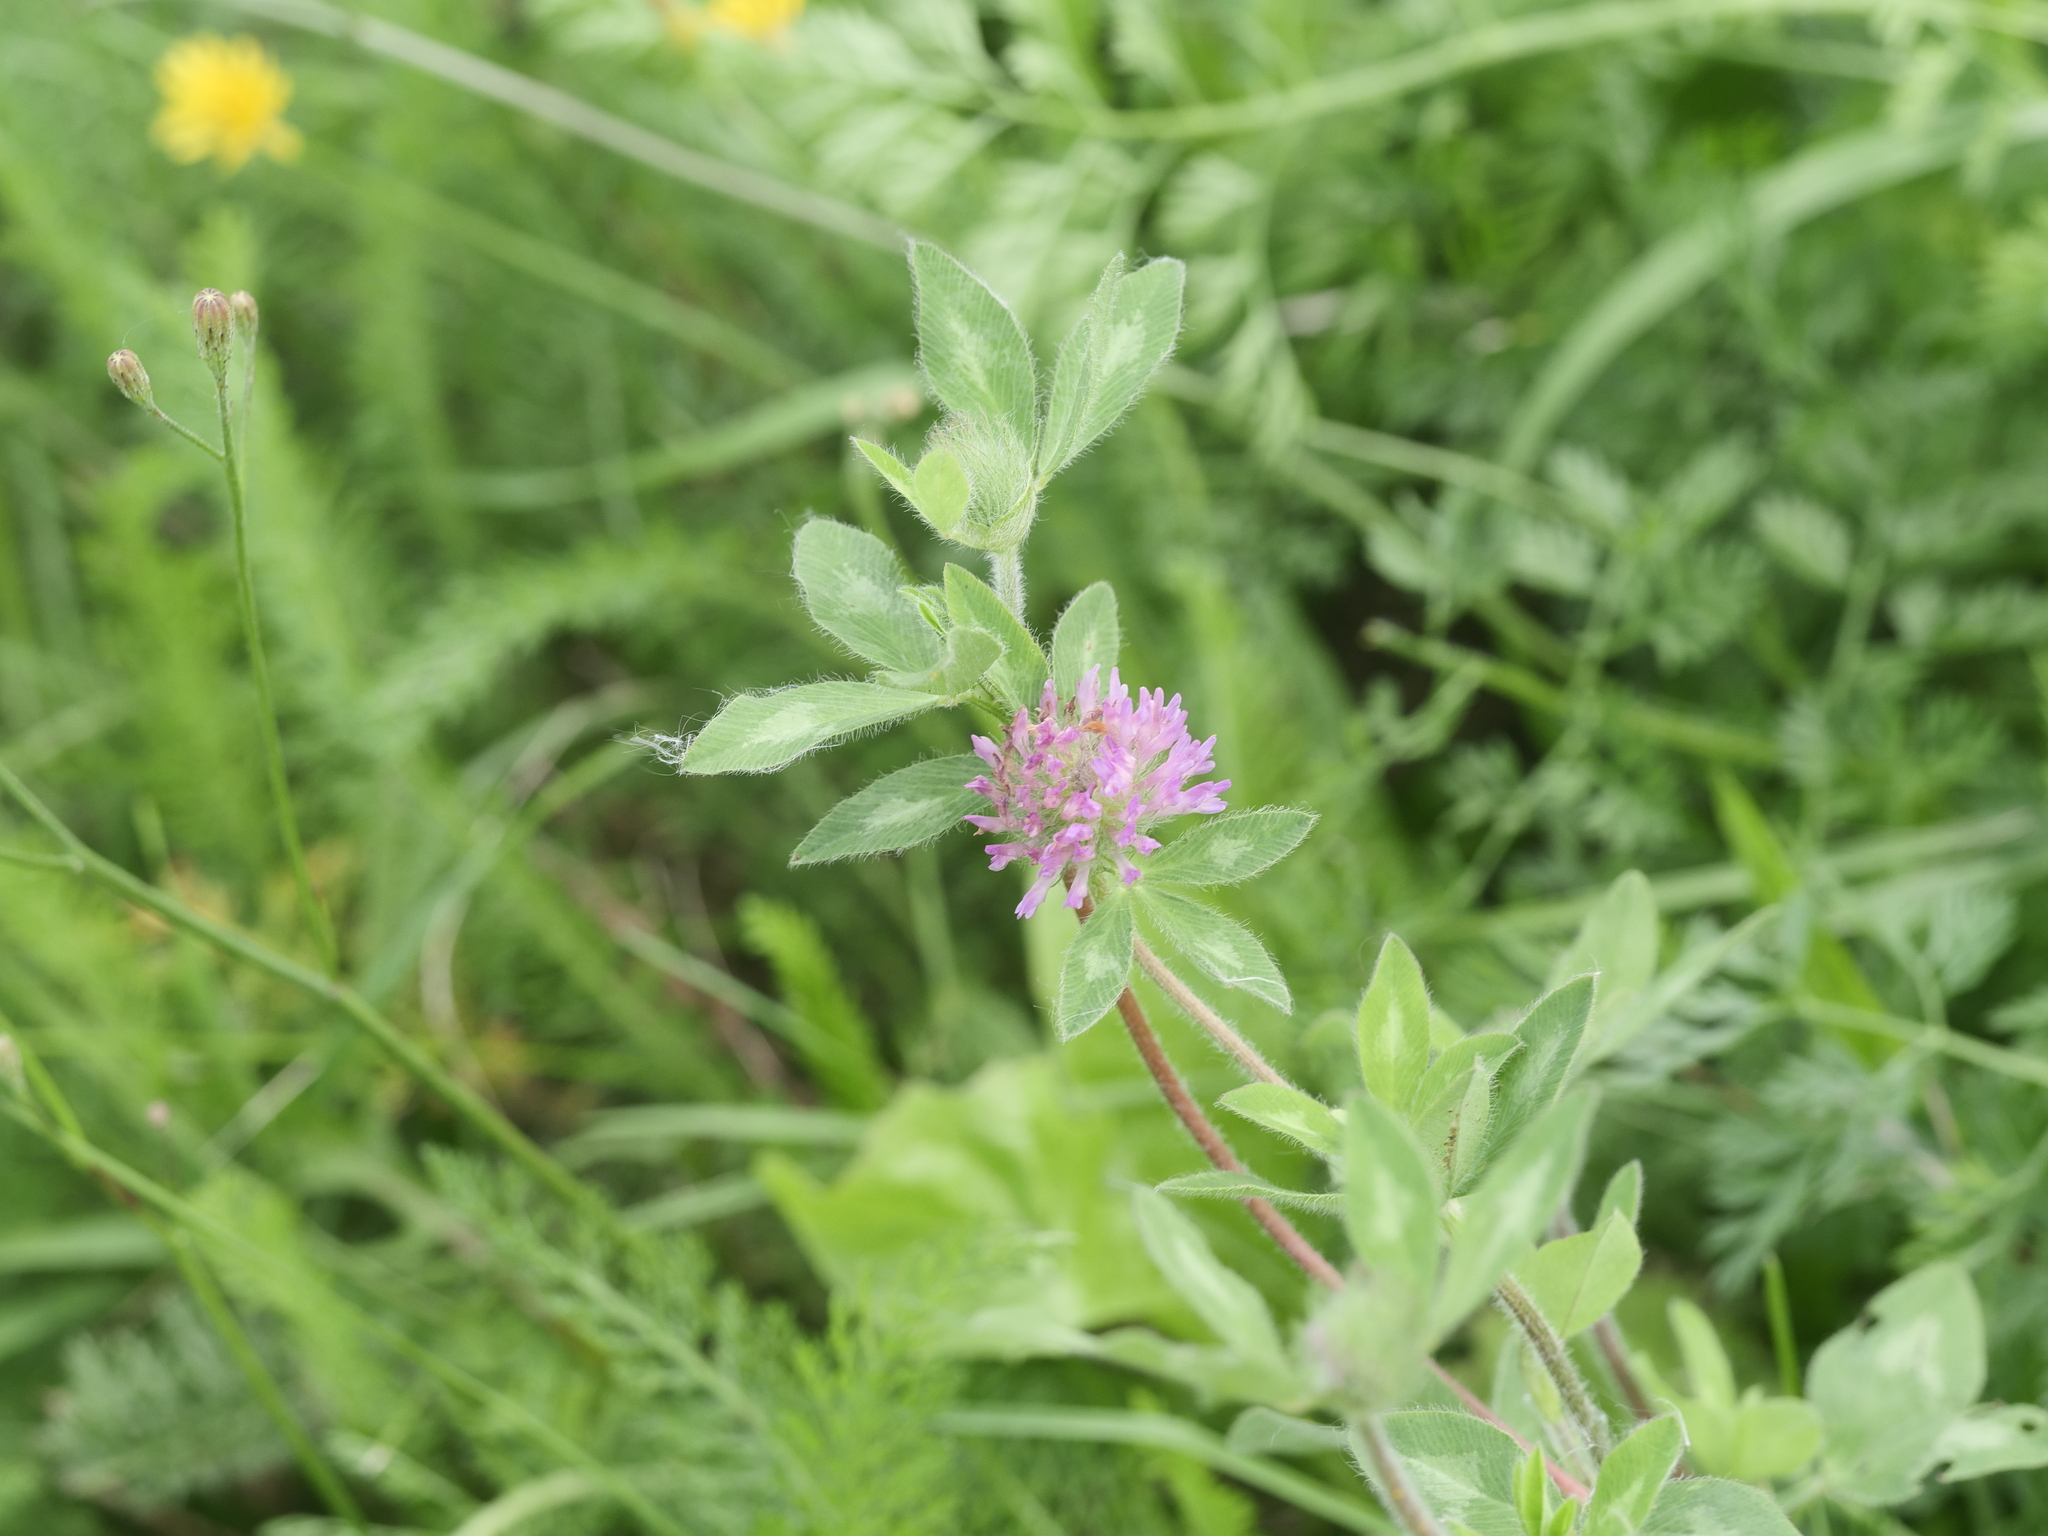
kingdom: Plantae
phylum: Tracheophyta
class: Magnoliopsida
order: Fabales
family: Fabaceae
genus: Trifolium
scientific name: Trifolium pratense
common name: Red clover
